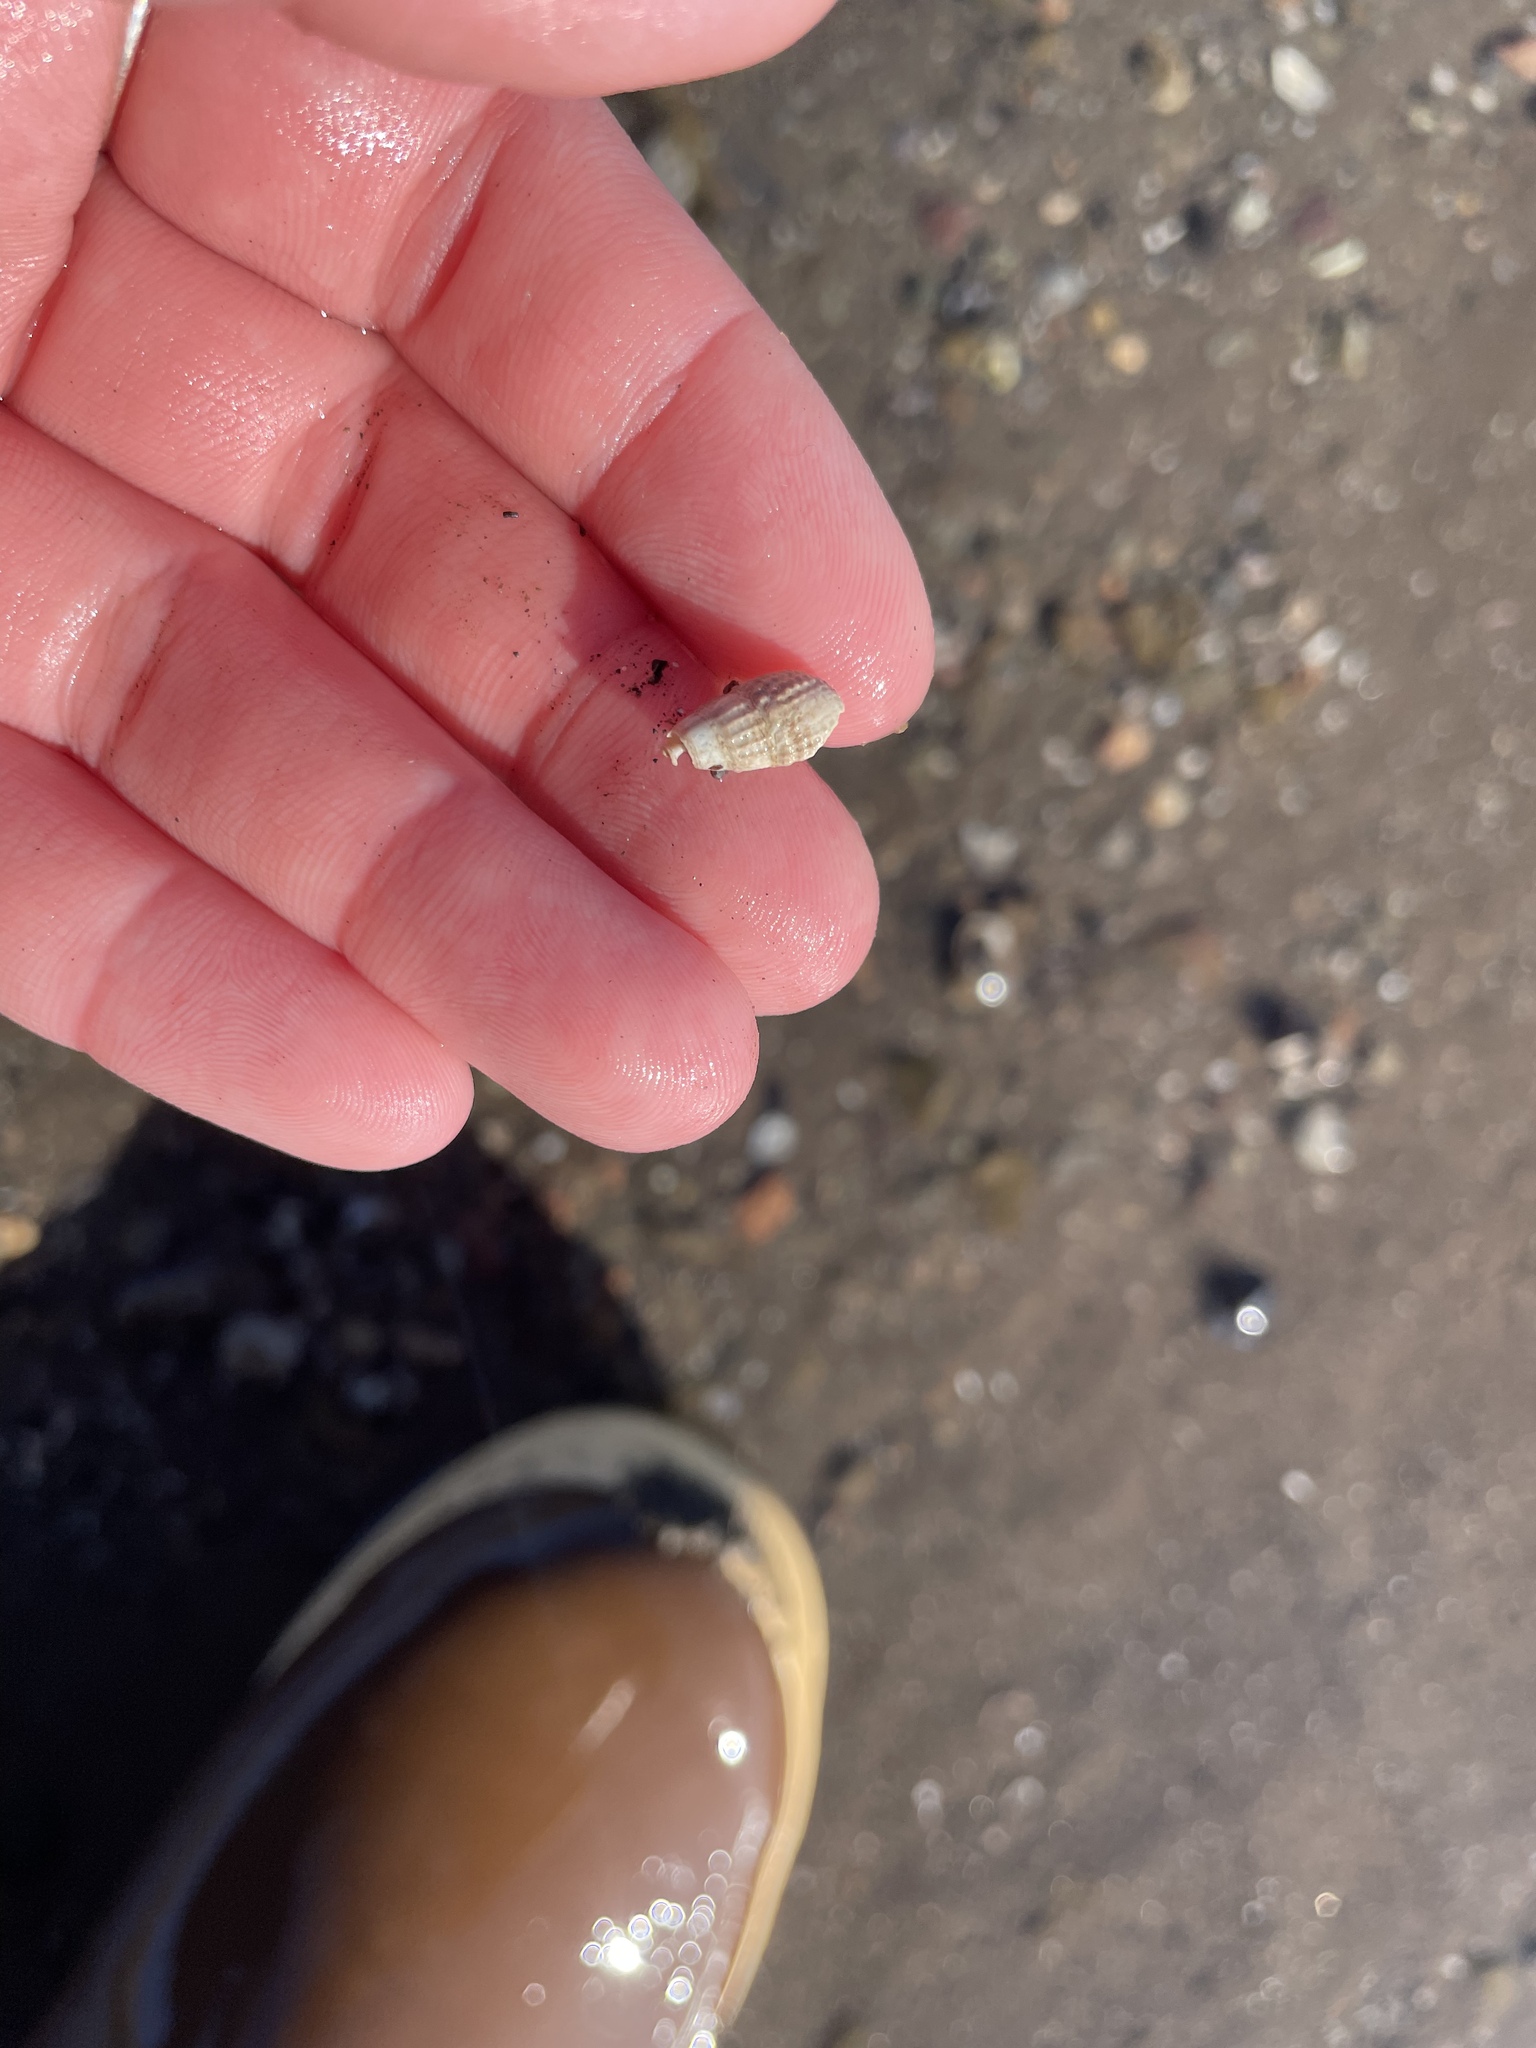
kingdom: Animalia
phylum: Mollusca
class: Gastropoda
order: Neogastropoda
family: Nassariidae
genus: Ilyanassa
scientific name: Ilyanassa trivittata
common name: Three-line mudsnail
